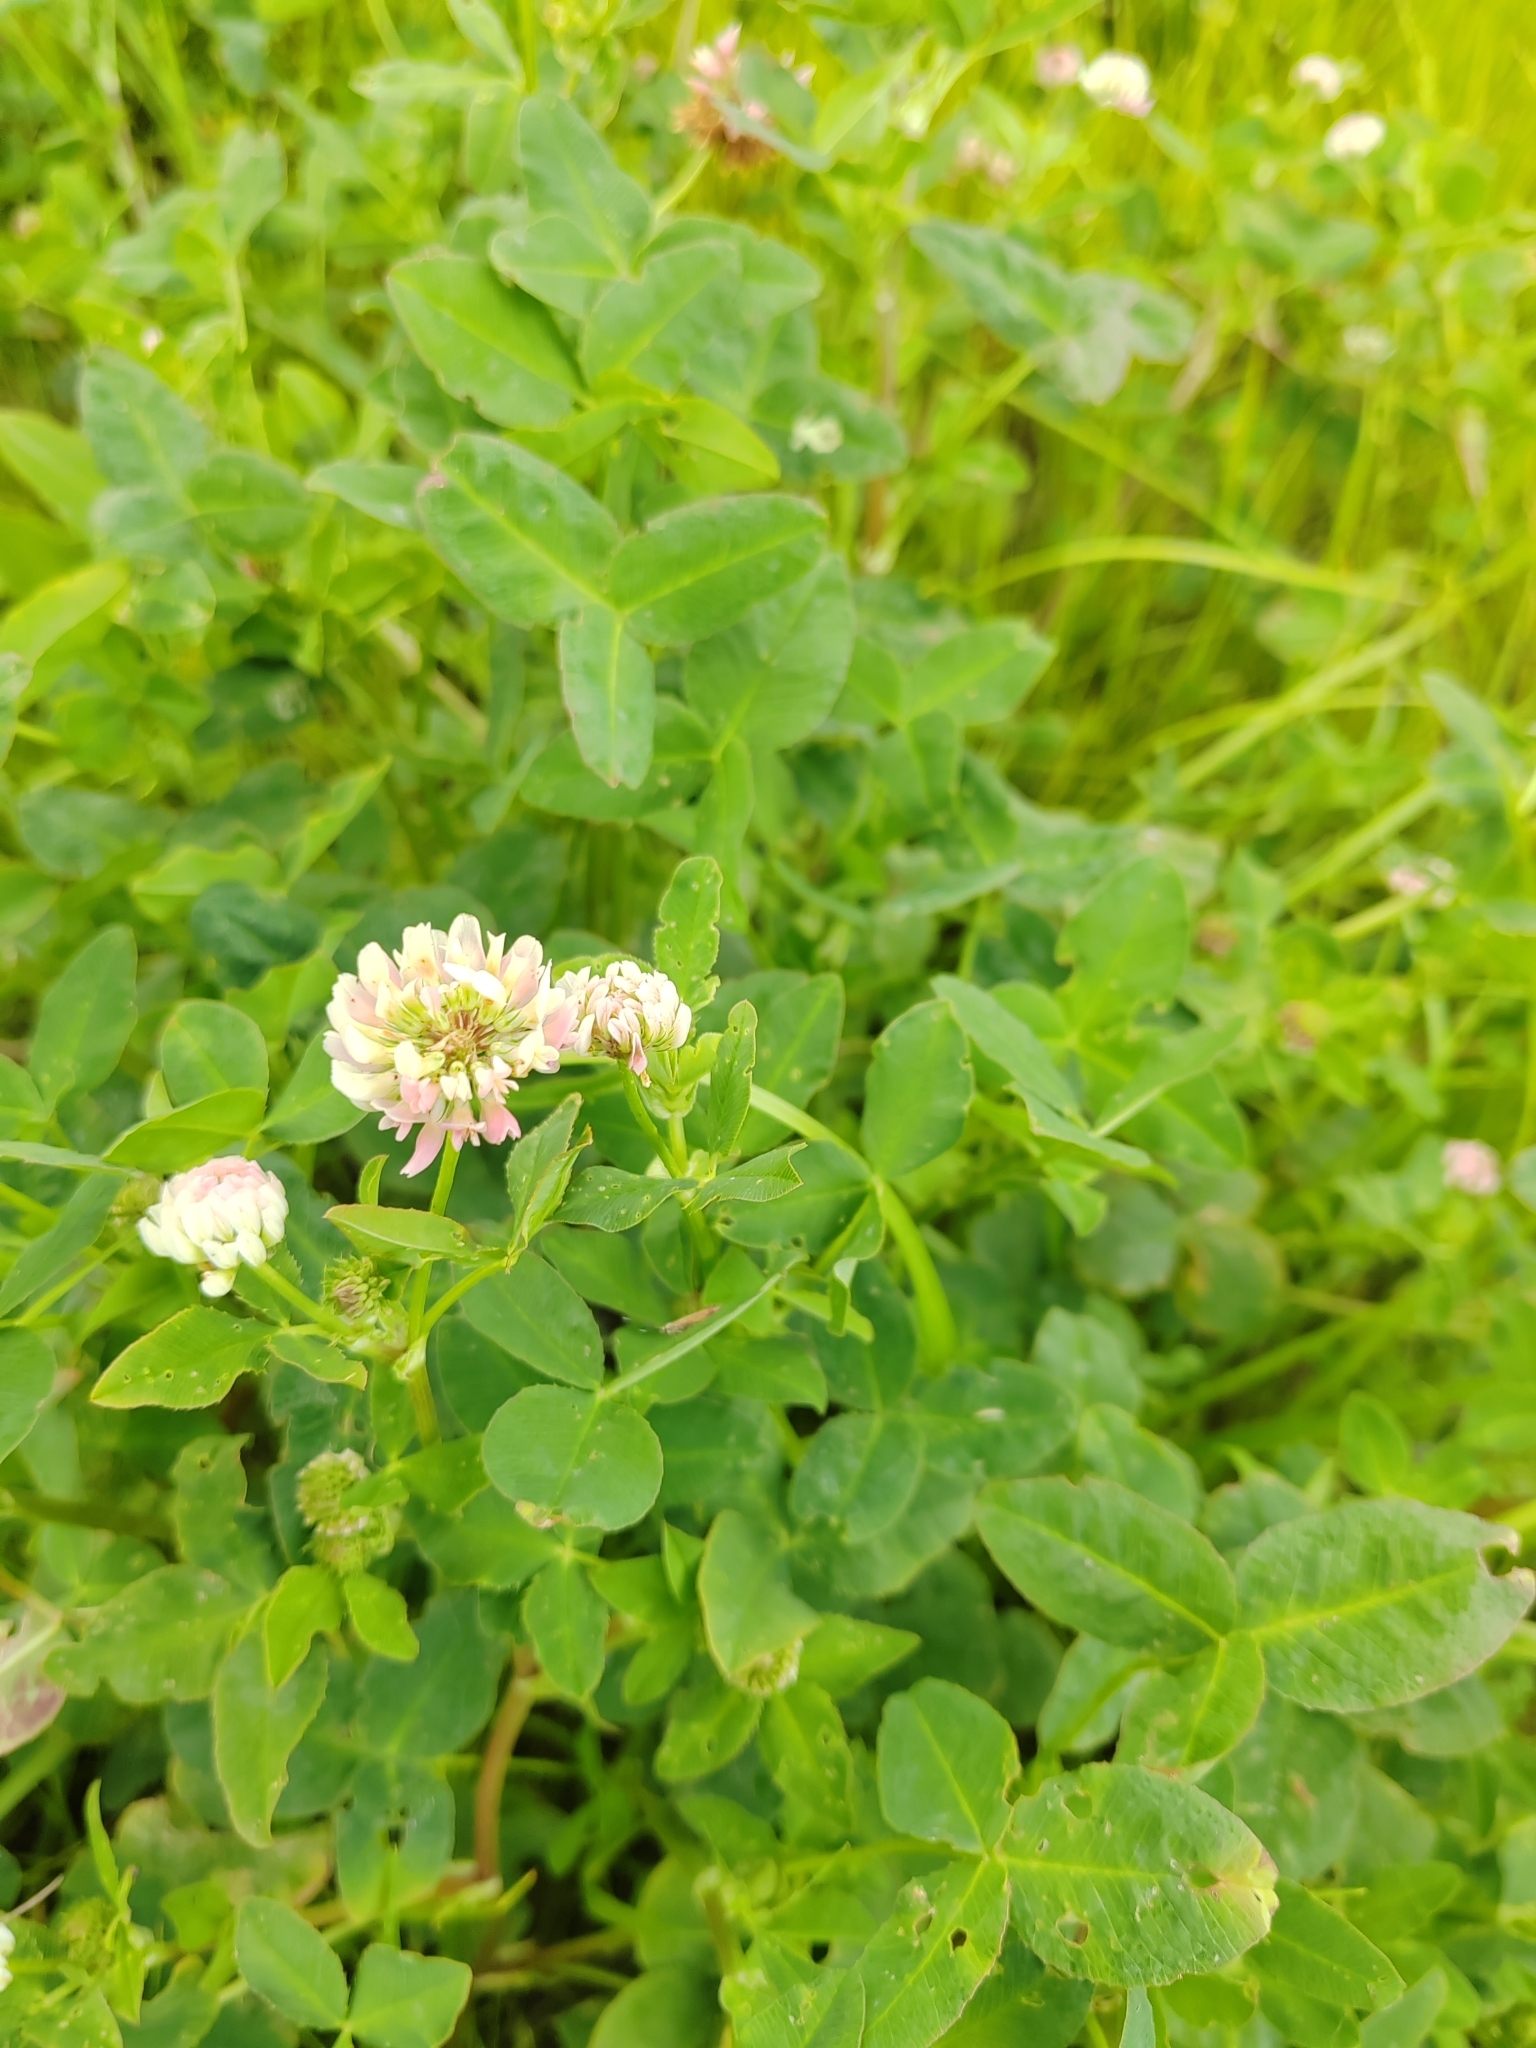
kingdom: Plantae
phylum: Tracheophyta
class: Magnoliopsida
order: Fabales
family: Fabaceae
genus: Trifolium
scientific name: Trifolium hybridum
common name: Alsike clover
